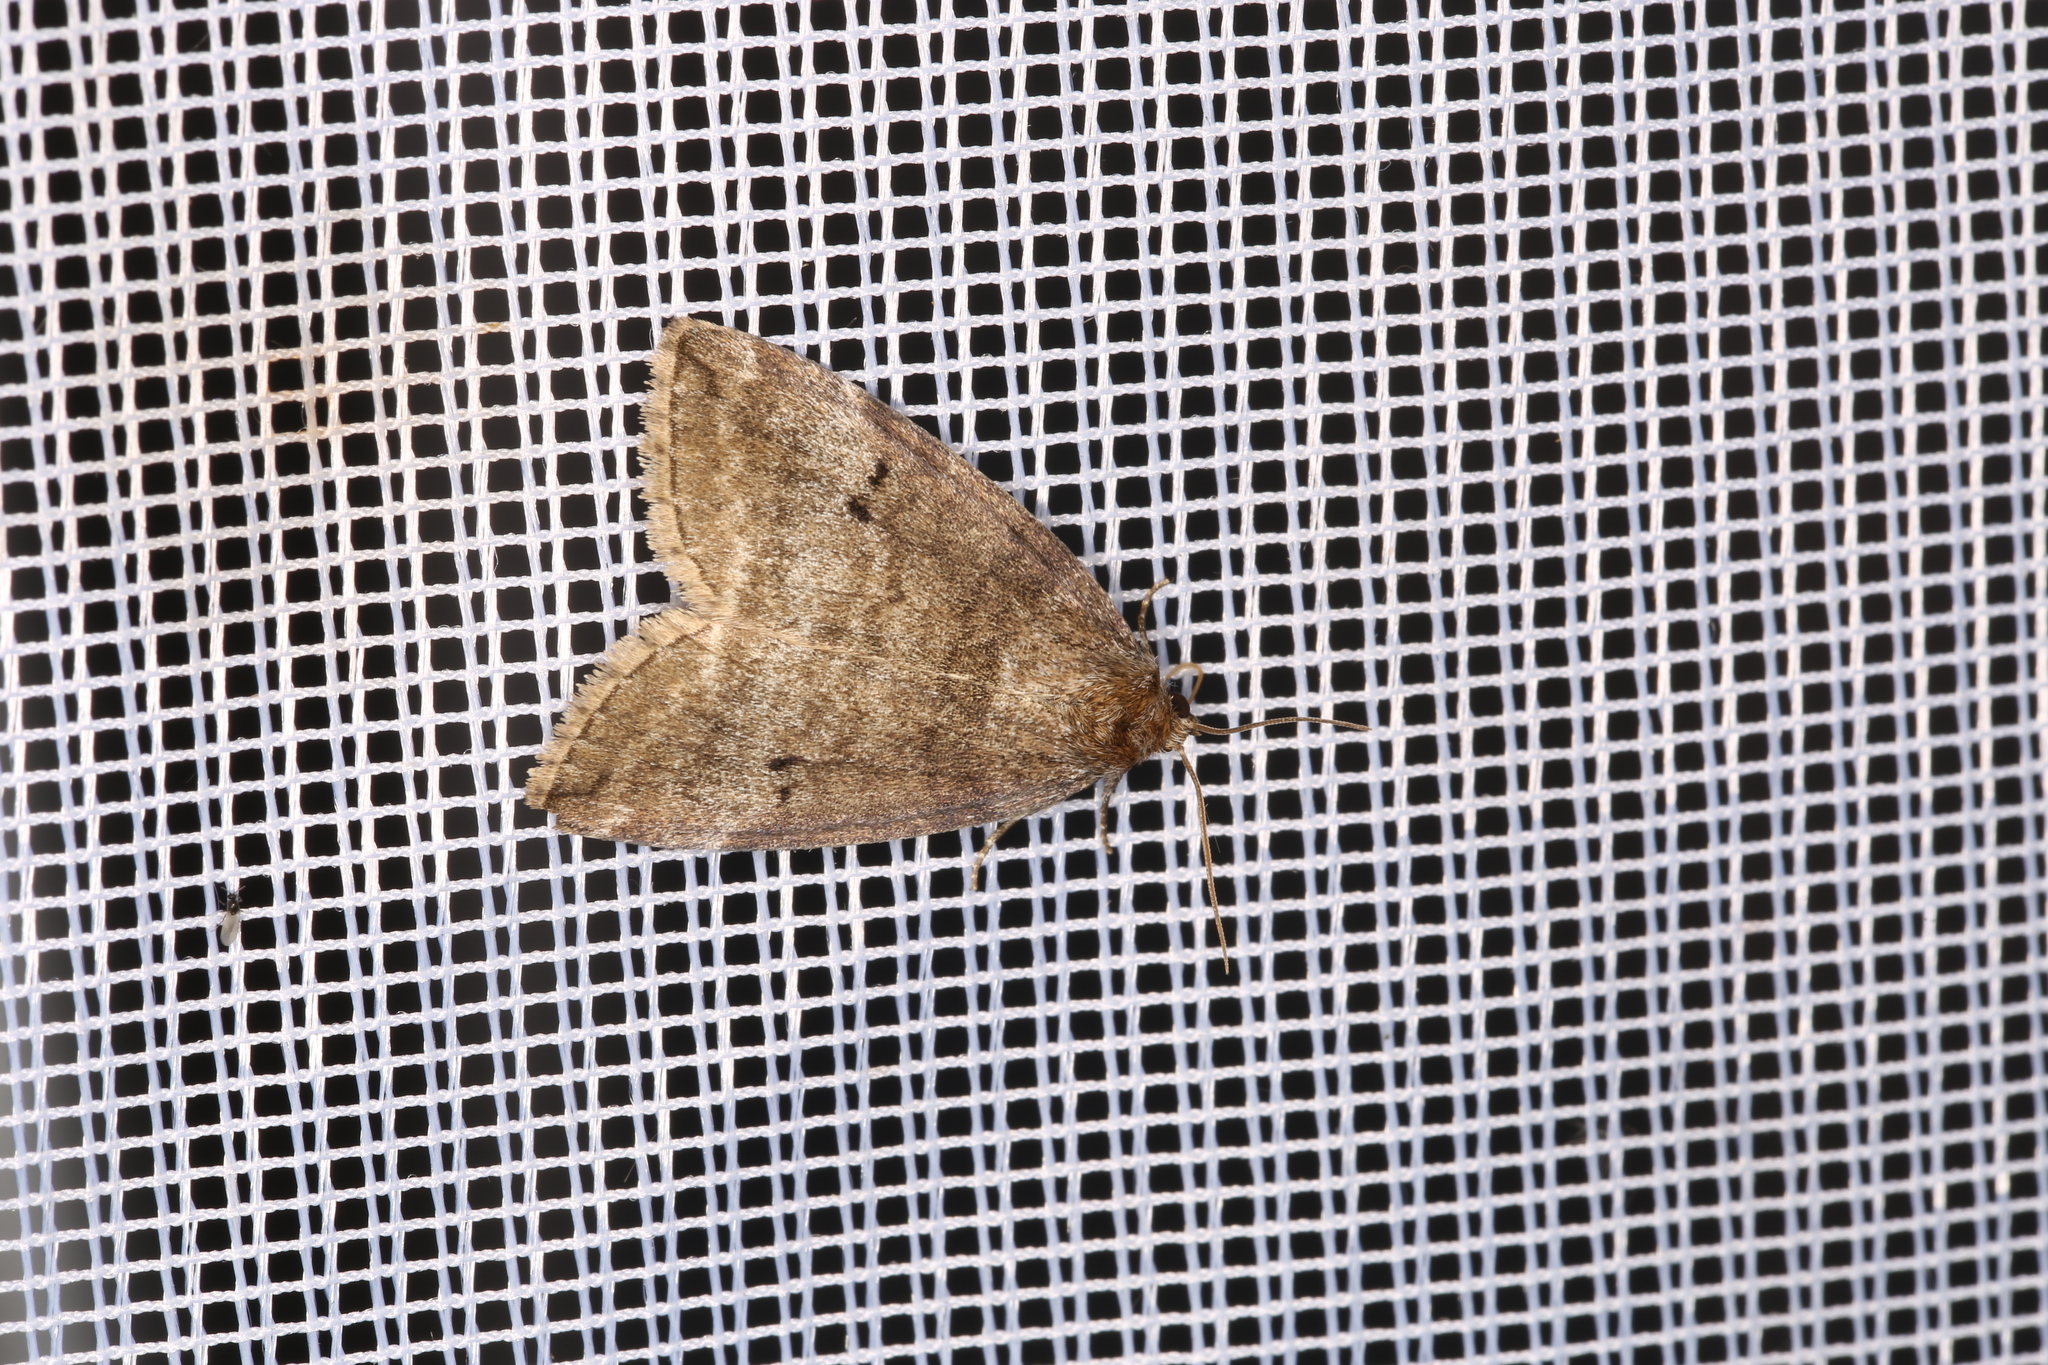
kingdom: Animalia
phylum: Arthropoda
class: Insecta
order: Lepidoptera
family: Drepanidae
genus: Ochropacha
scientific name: Ochropacha duplaris
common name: Common lutestring
